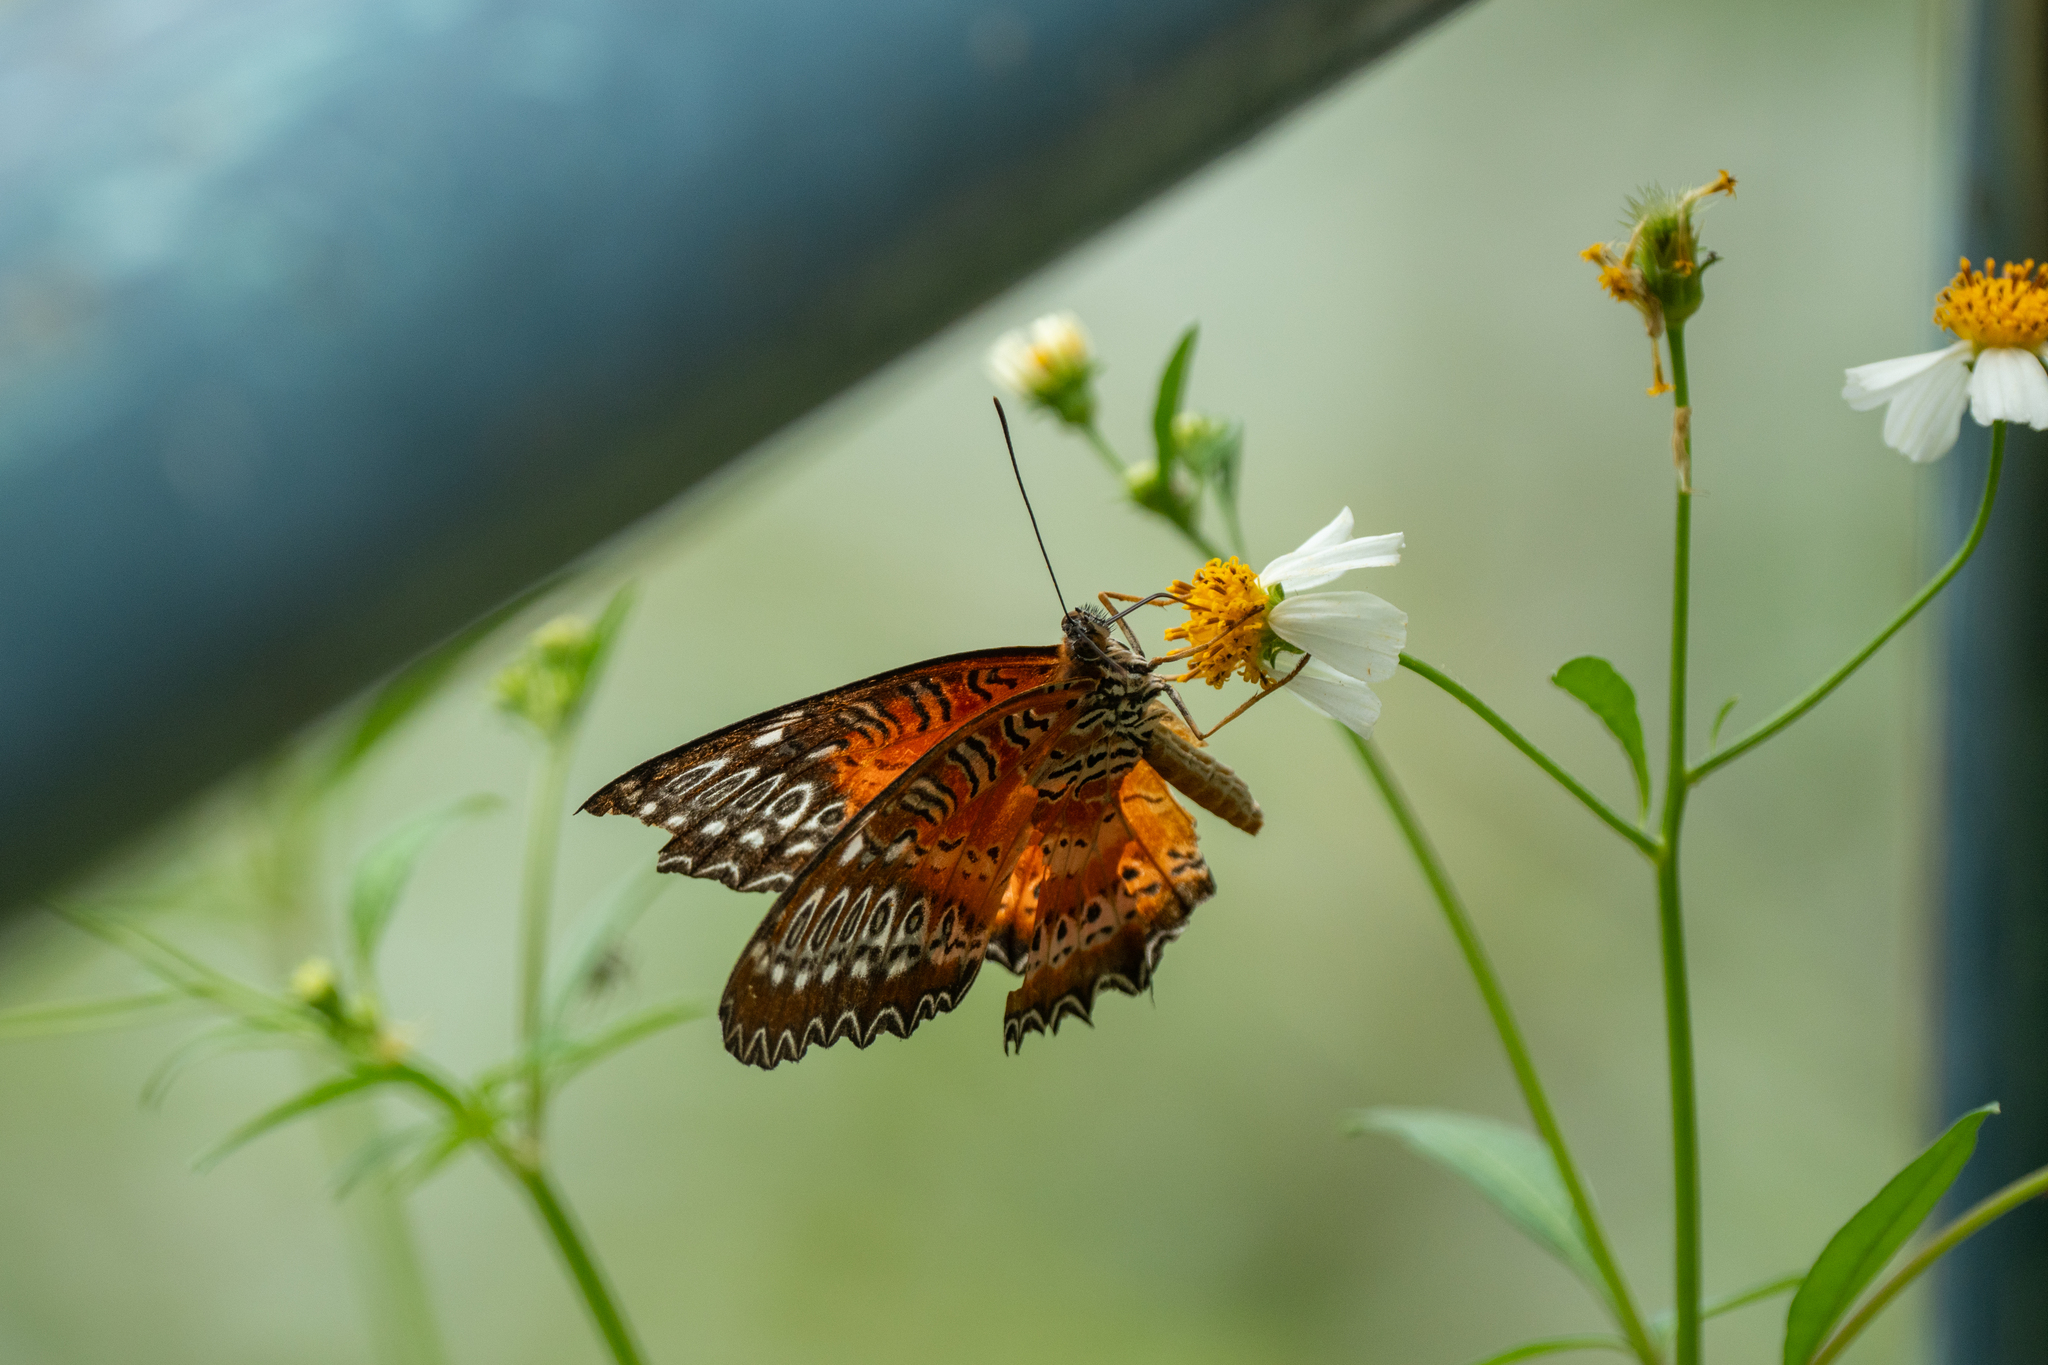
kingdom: Animalia
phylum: Arthropoda
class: Insecta
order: Lepidoptera
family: Nymphalidae
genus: Cethosia
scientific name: Cethosia biblis
